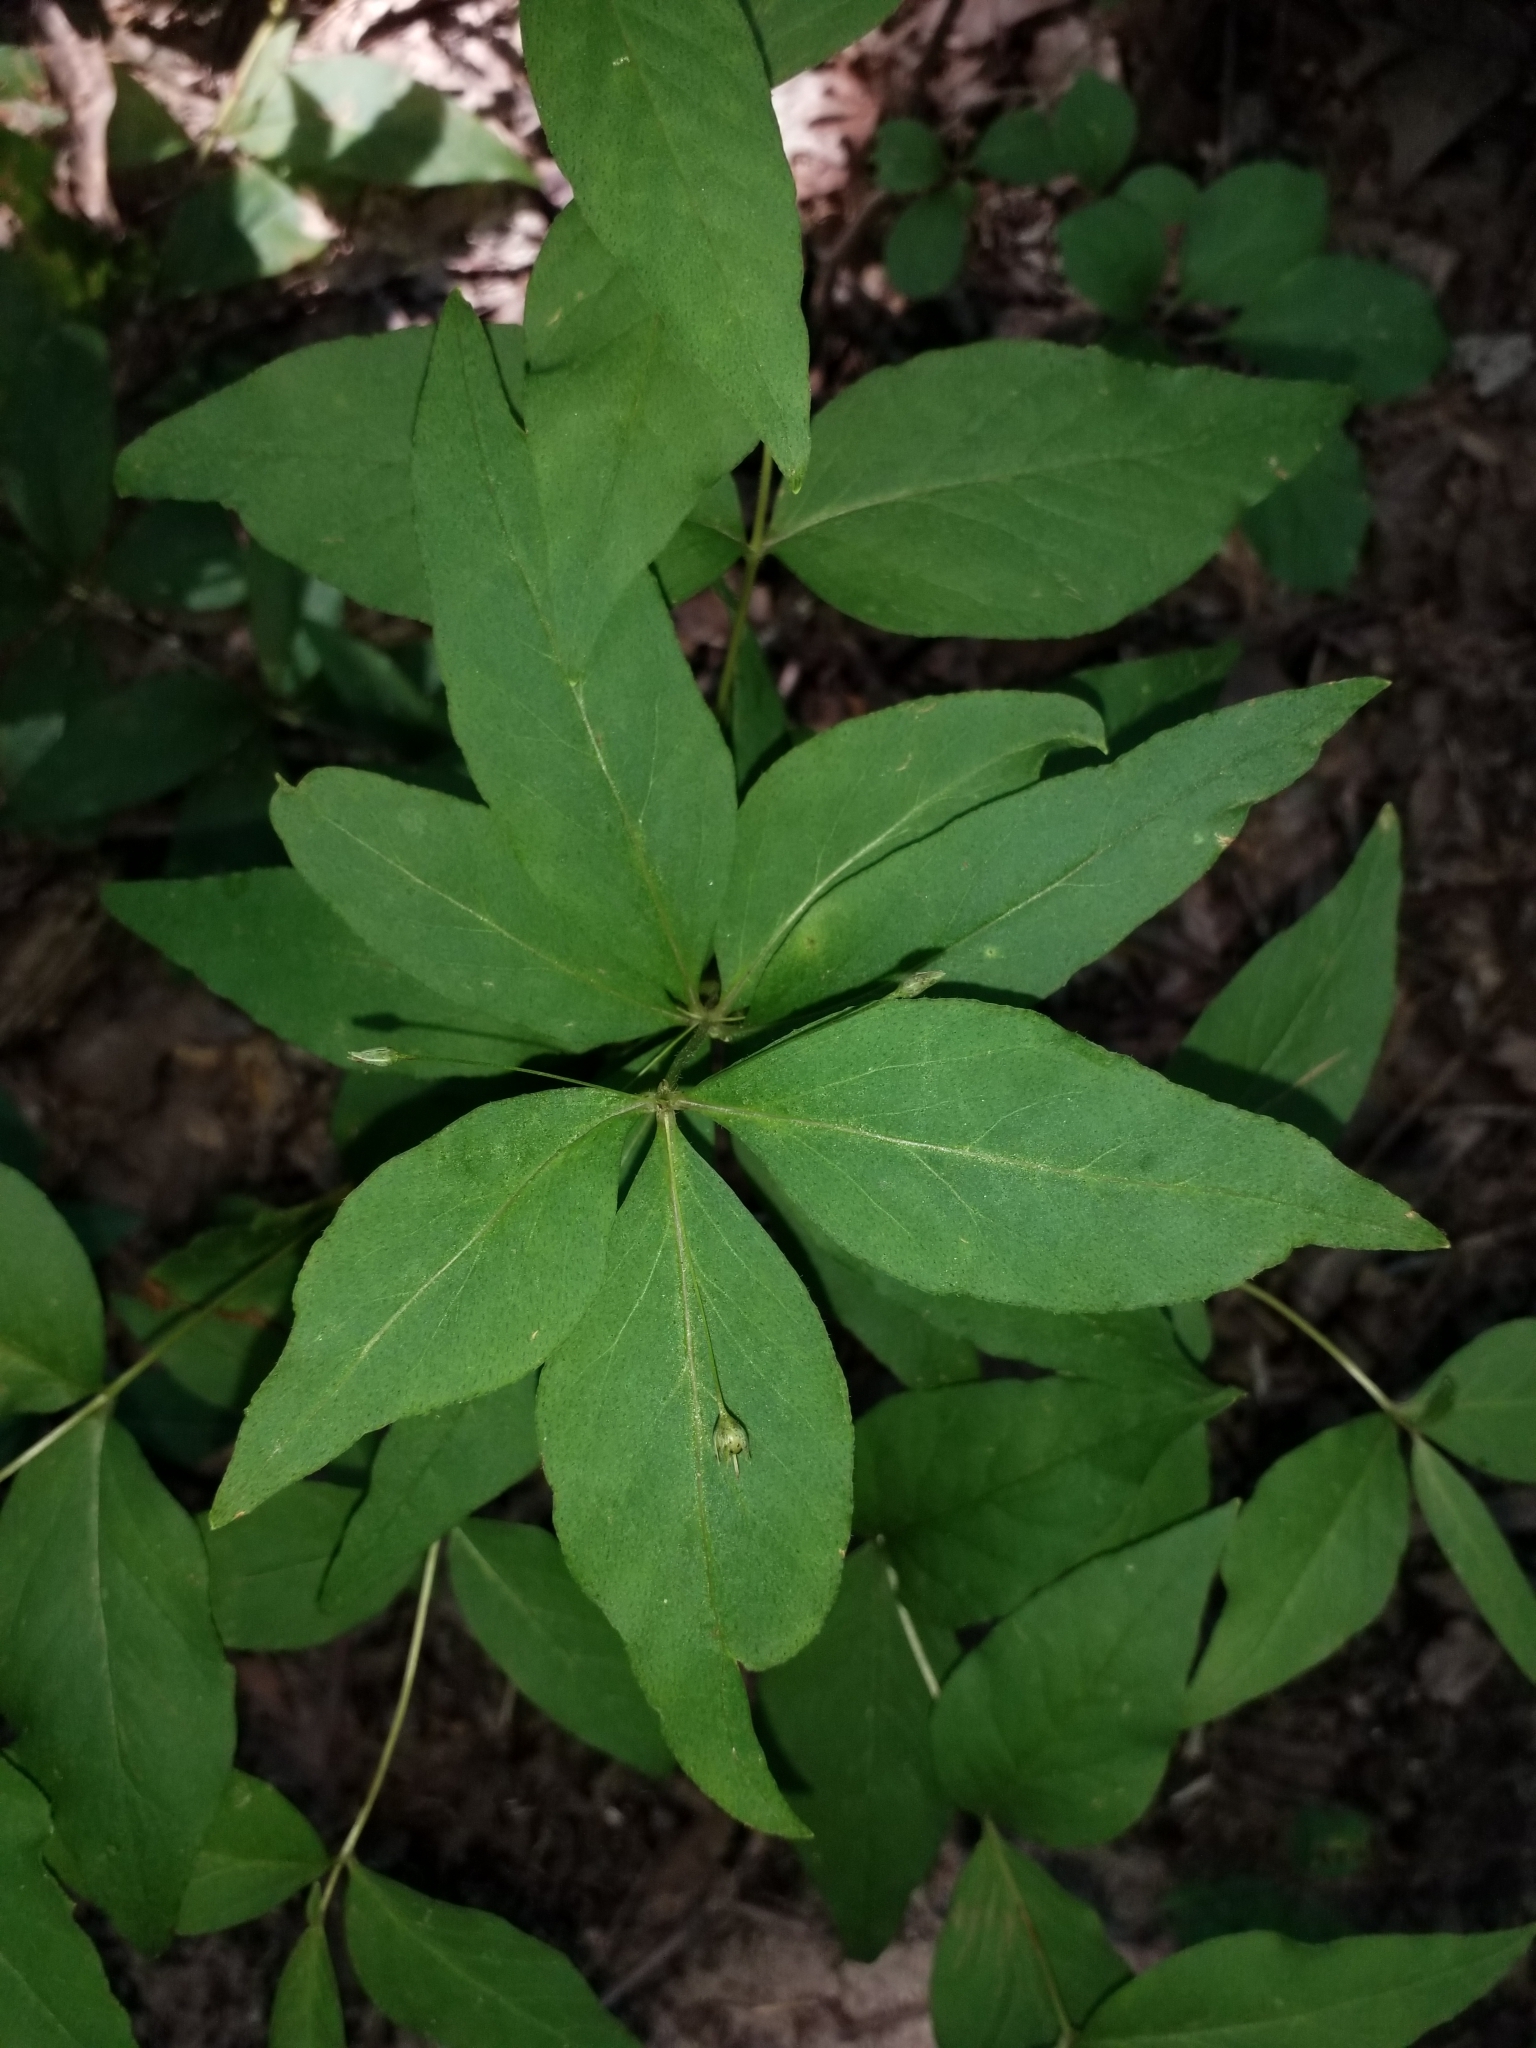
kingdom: Plantae
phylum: Tracheophyta
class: Magnoliopsida
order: Ericales
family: Primulaceae
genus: Lysimachia
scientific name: Lysimachia quadrifolia
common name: Whorled loosestrife
